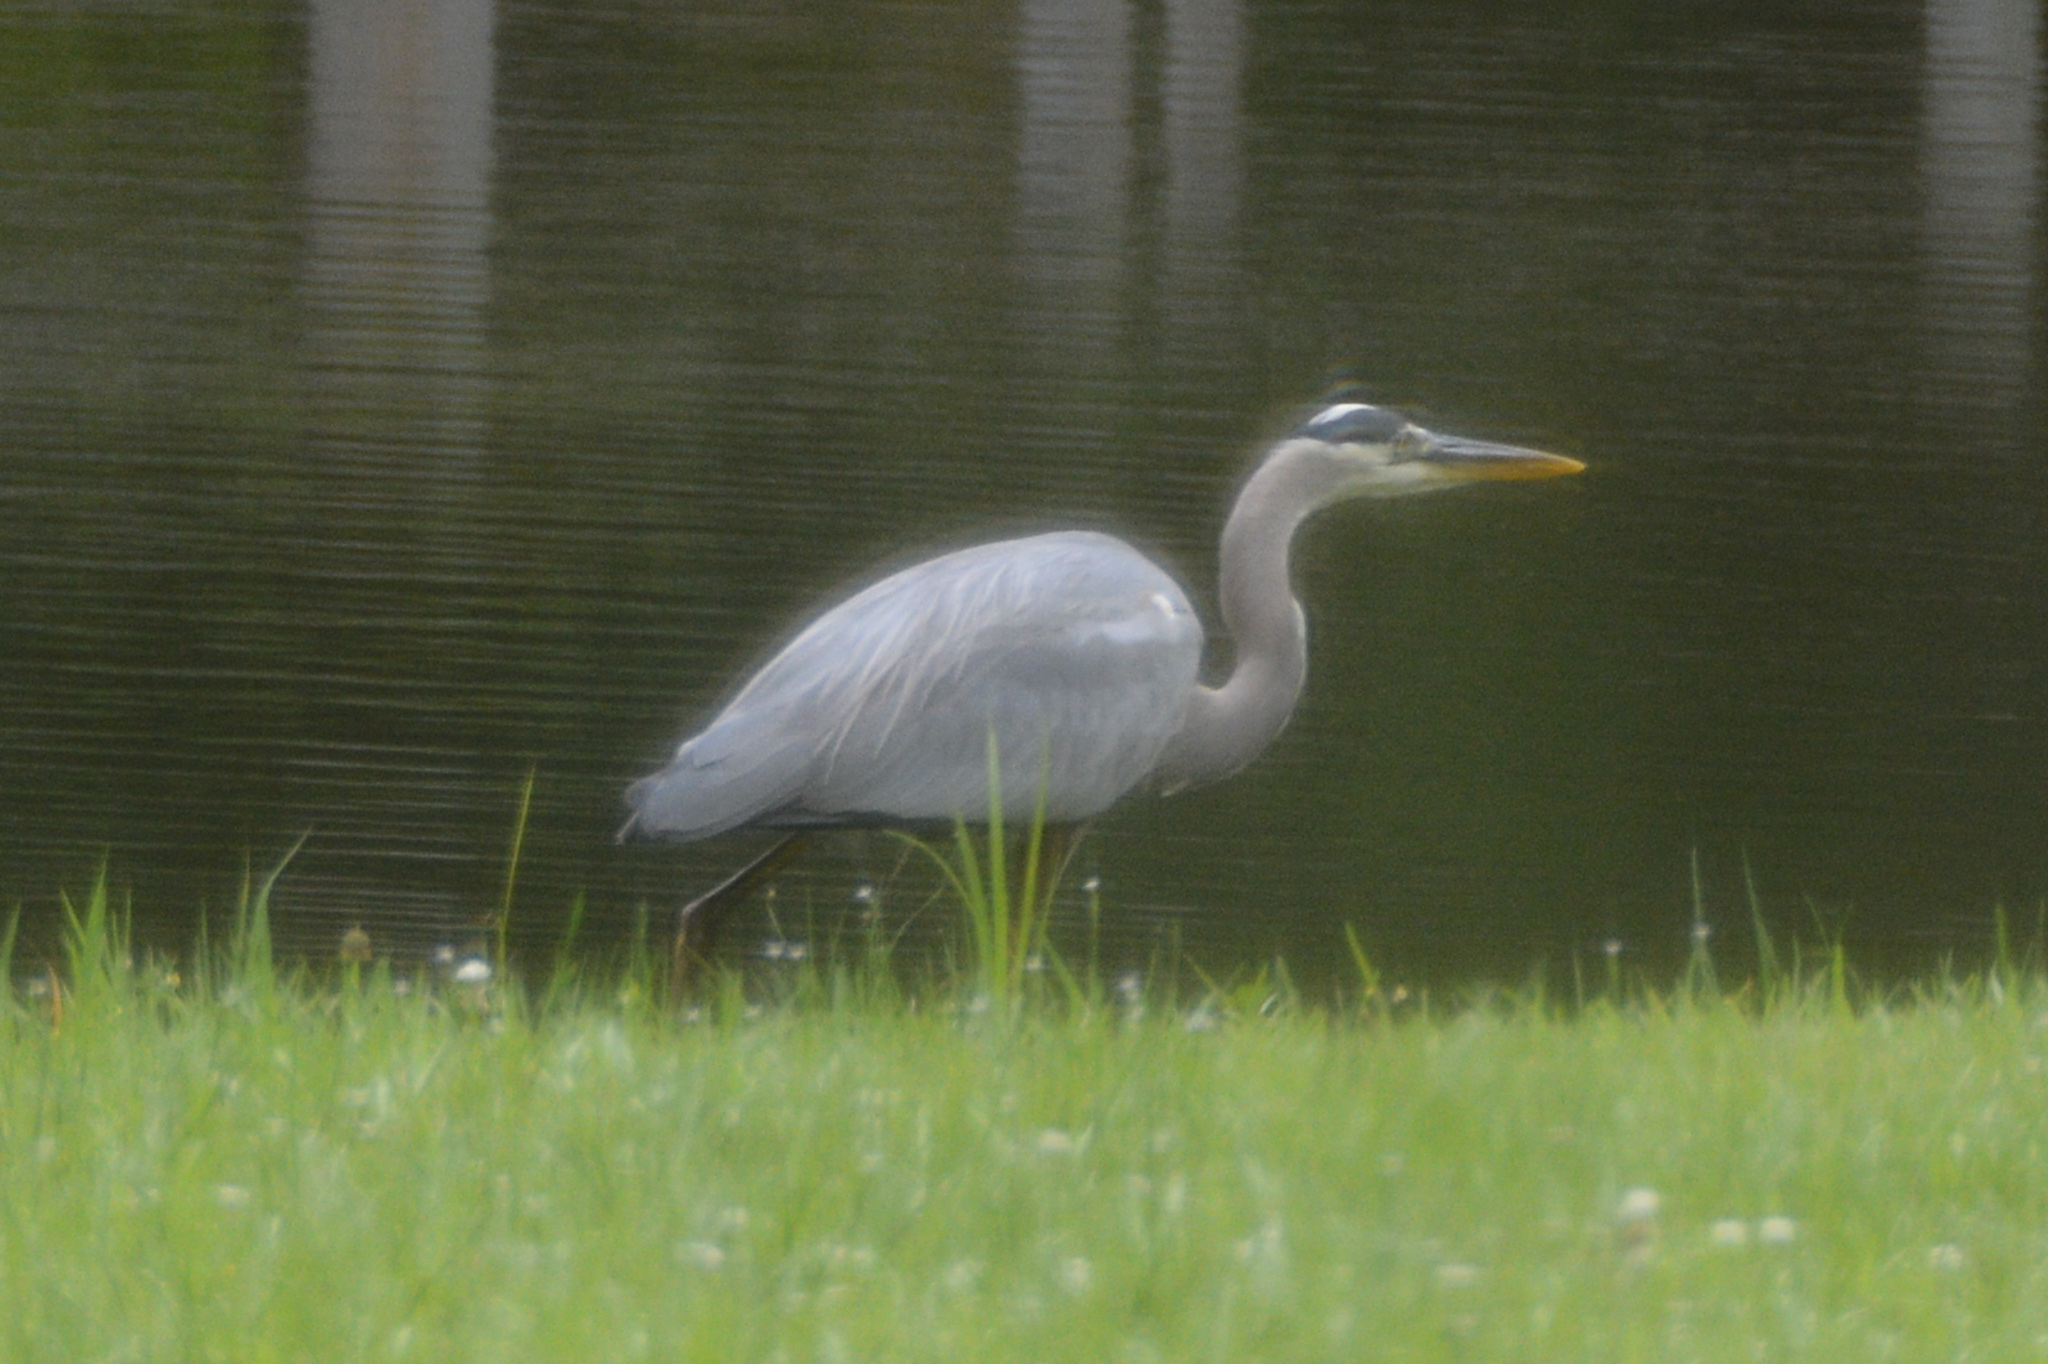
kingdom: Animalia
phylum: Chordata
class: Aves
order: Pelecaniformes
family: Ardeidae
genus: Ardea
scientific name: Ardea herodias
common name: Great blue heron
